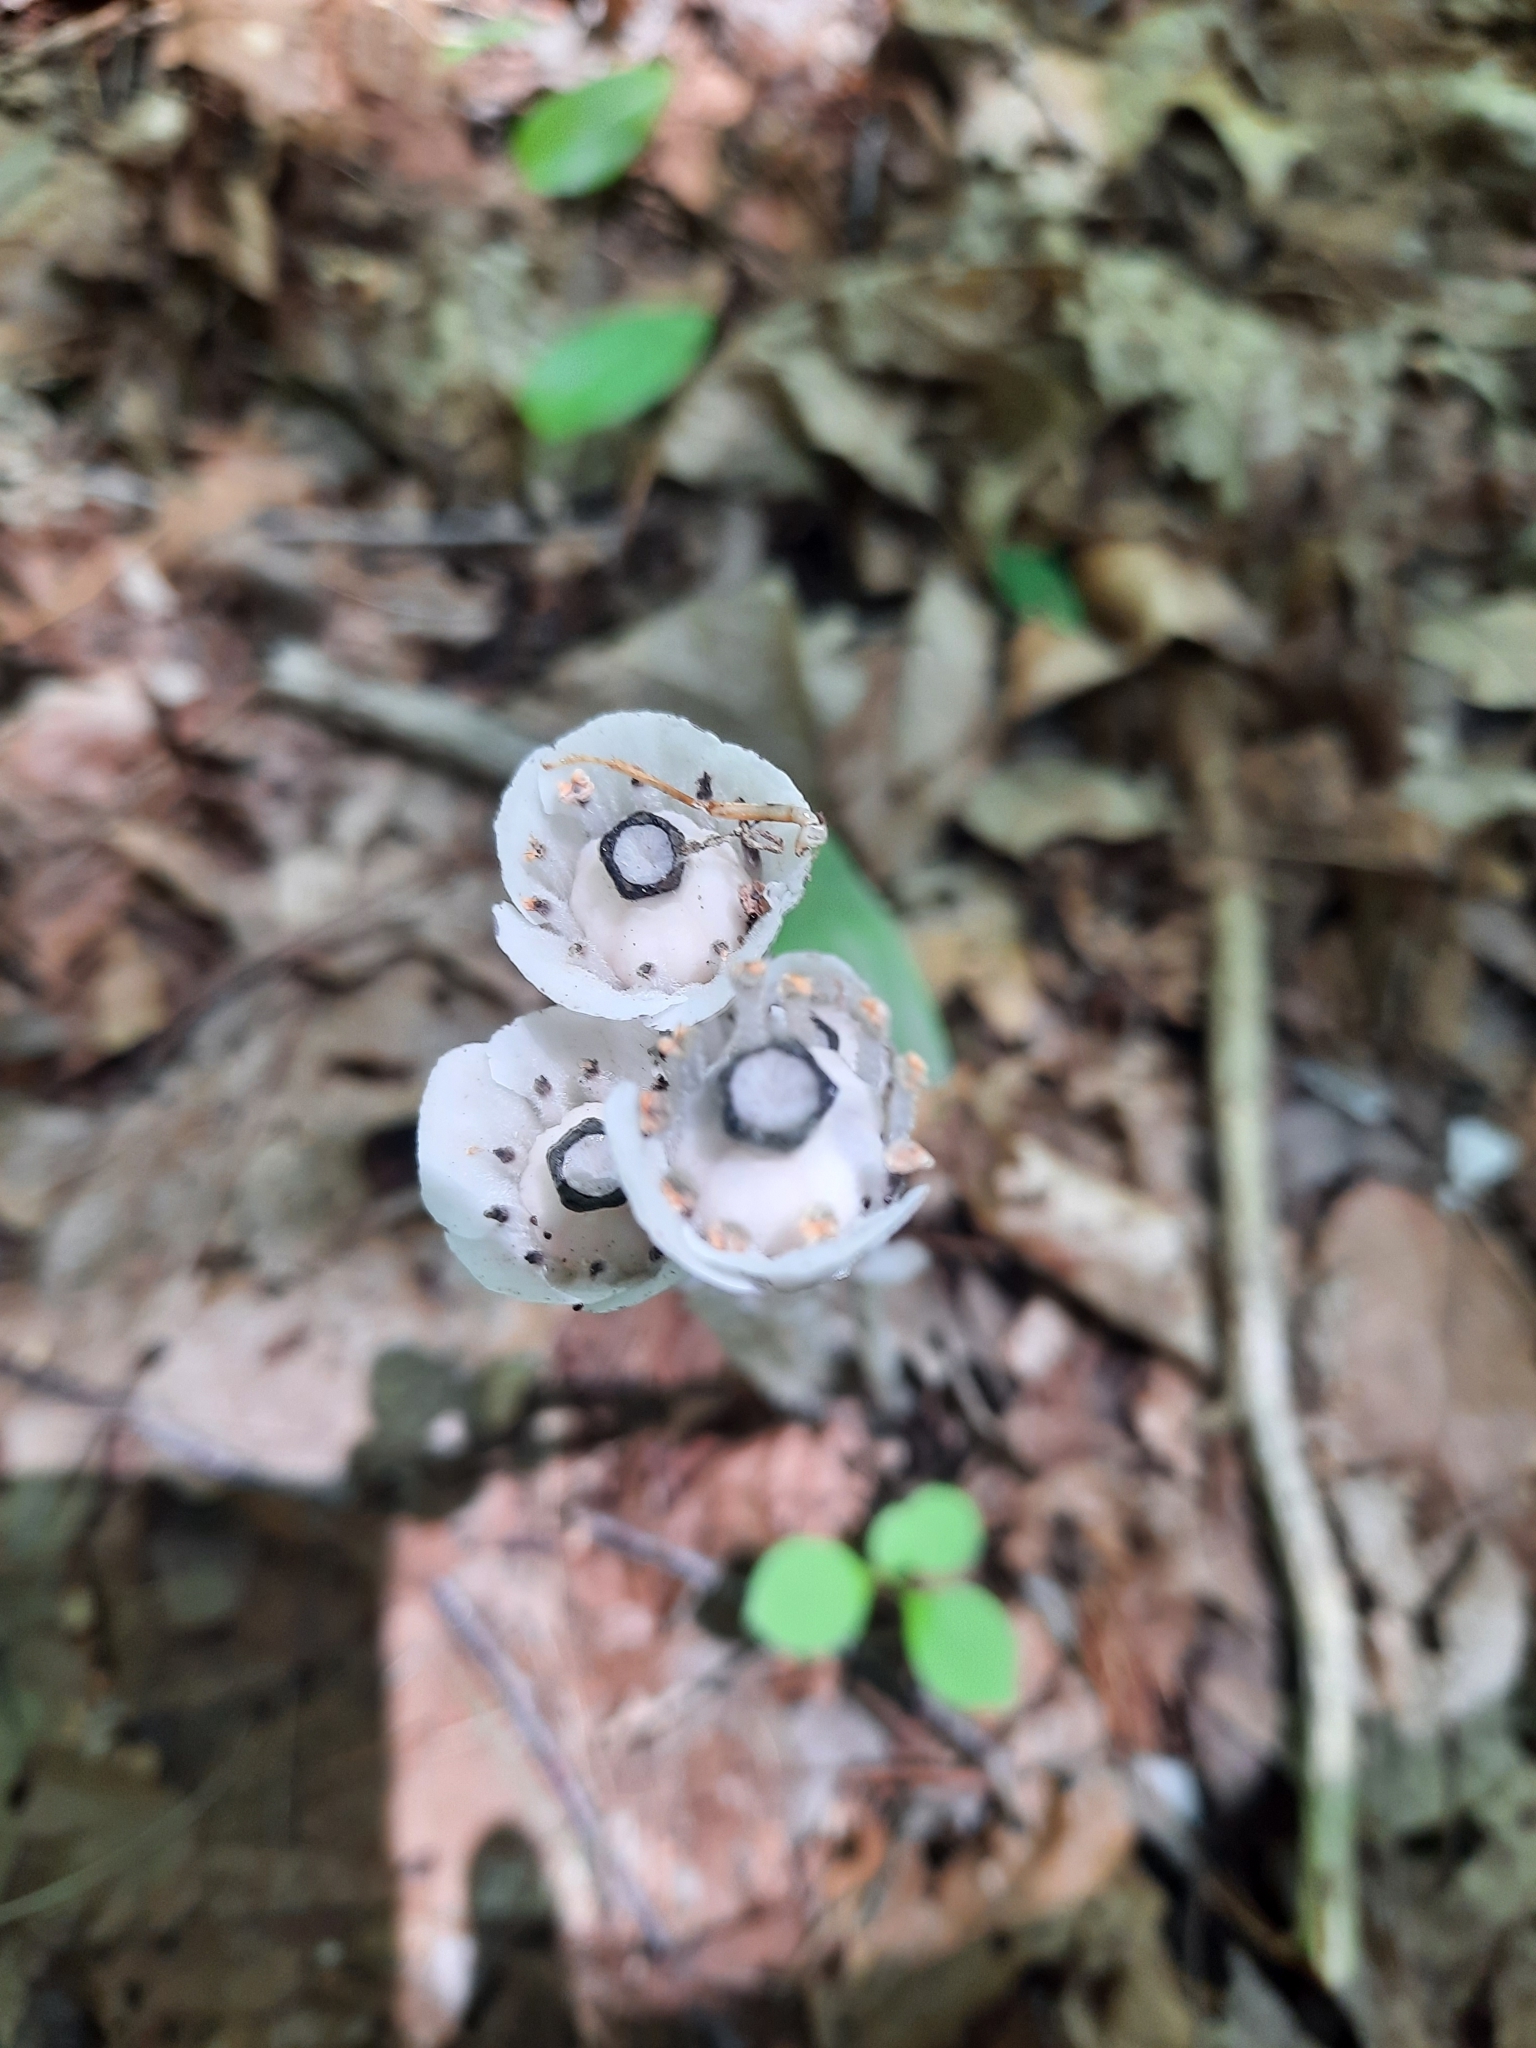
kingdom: Plantae
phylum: Tracheophyta
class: Magnoliopsida
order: Ericales
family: Ericaceae
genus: Monotropa
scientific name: Monotropa uniflora
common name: Convulsion root
